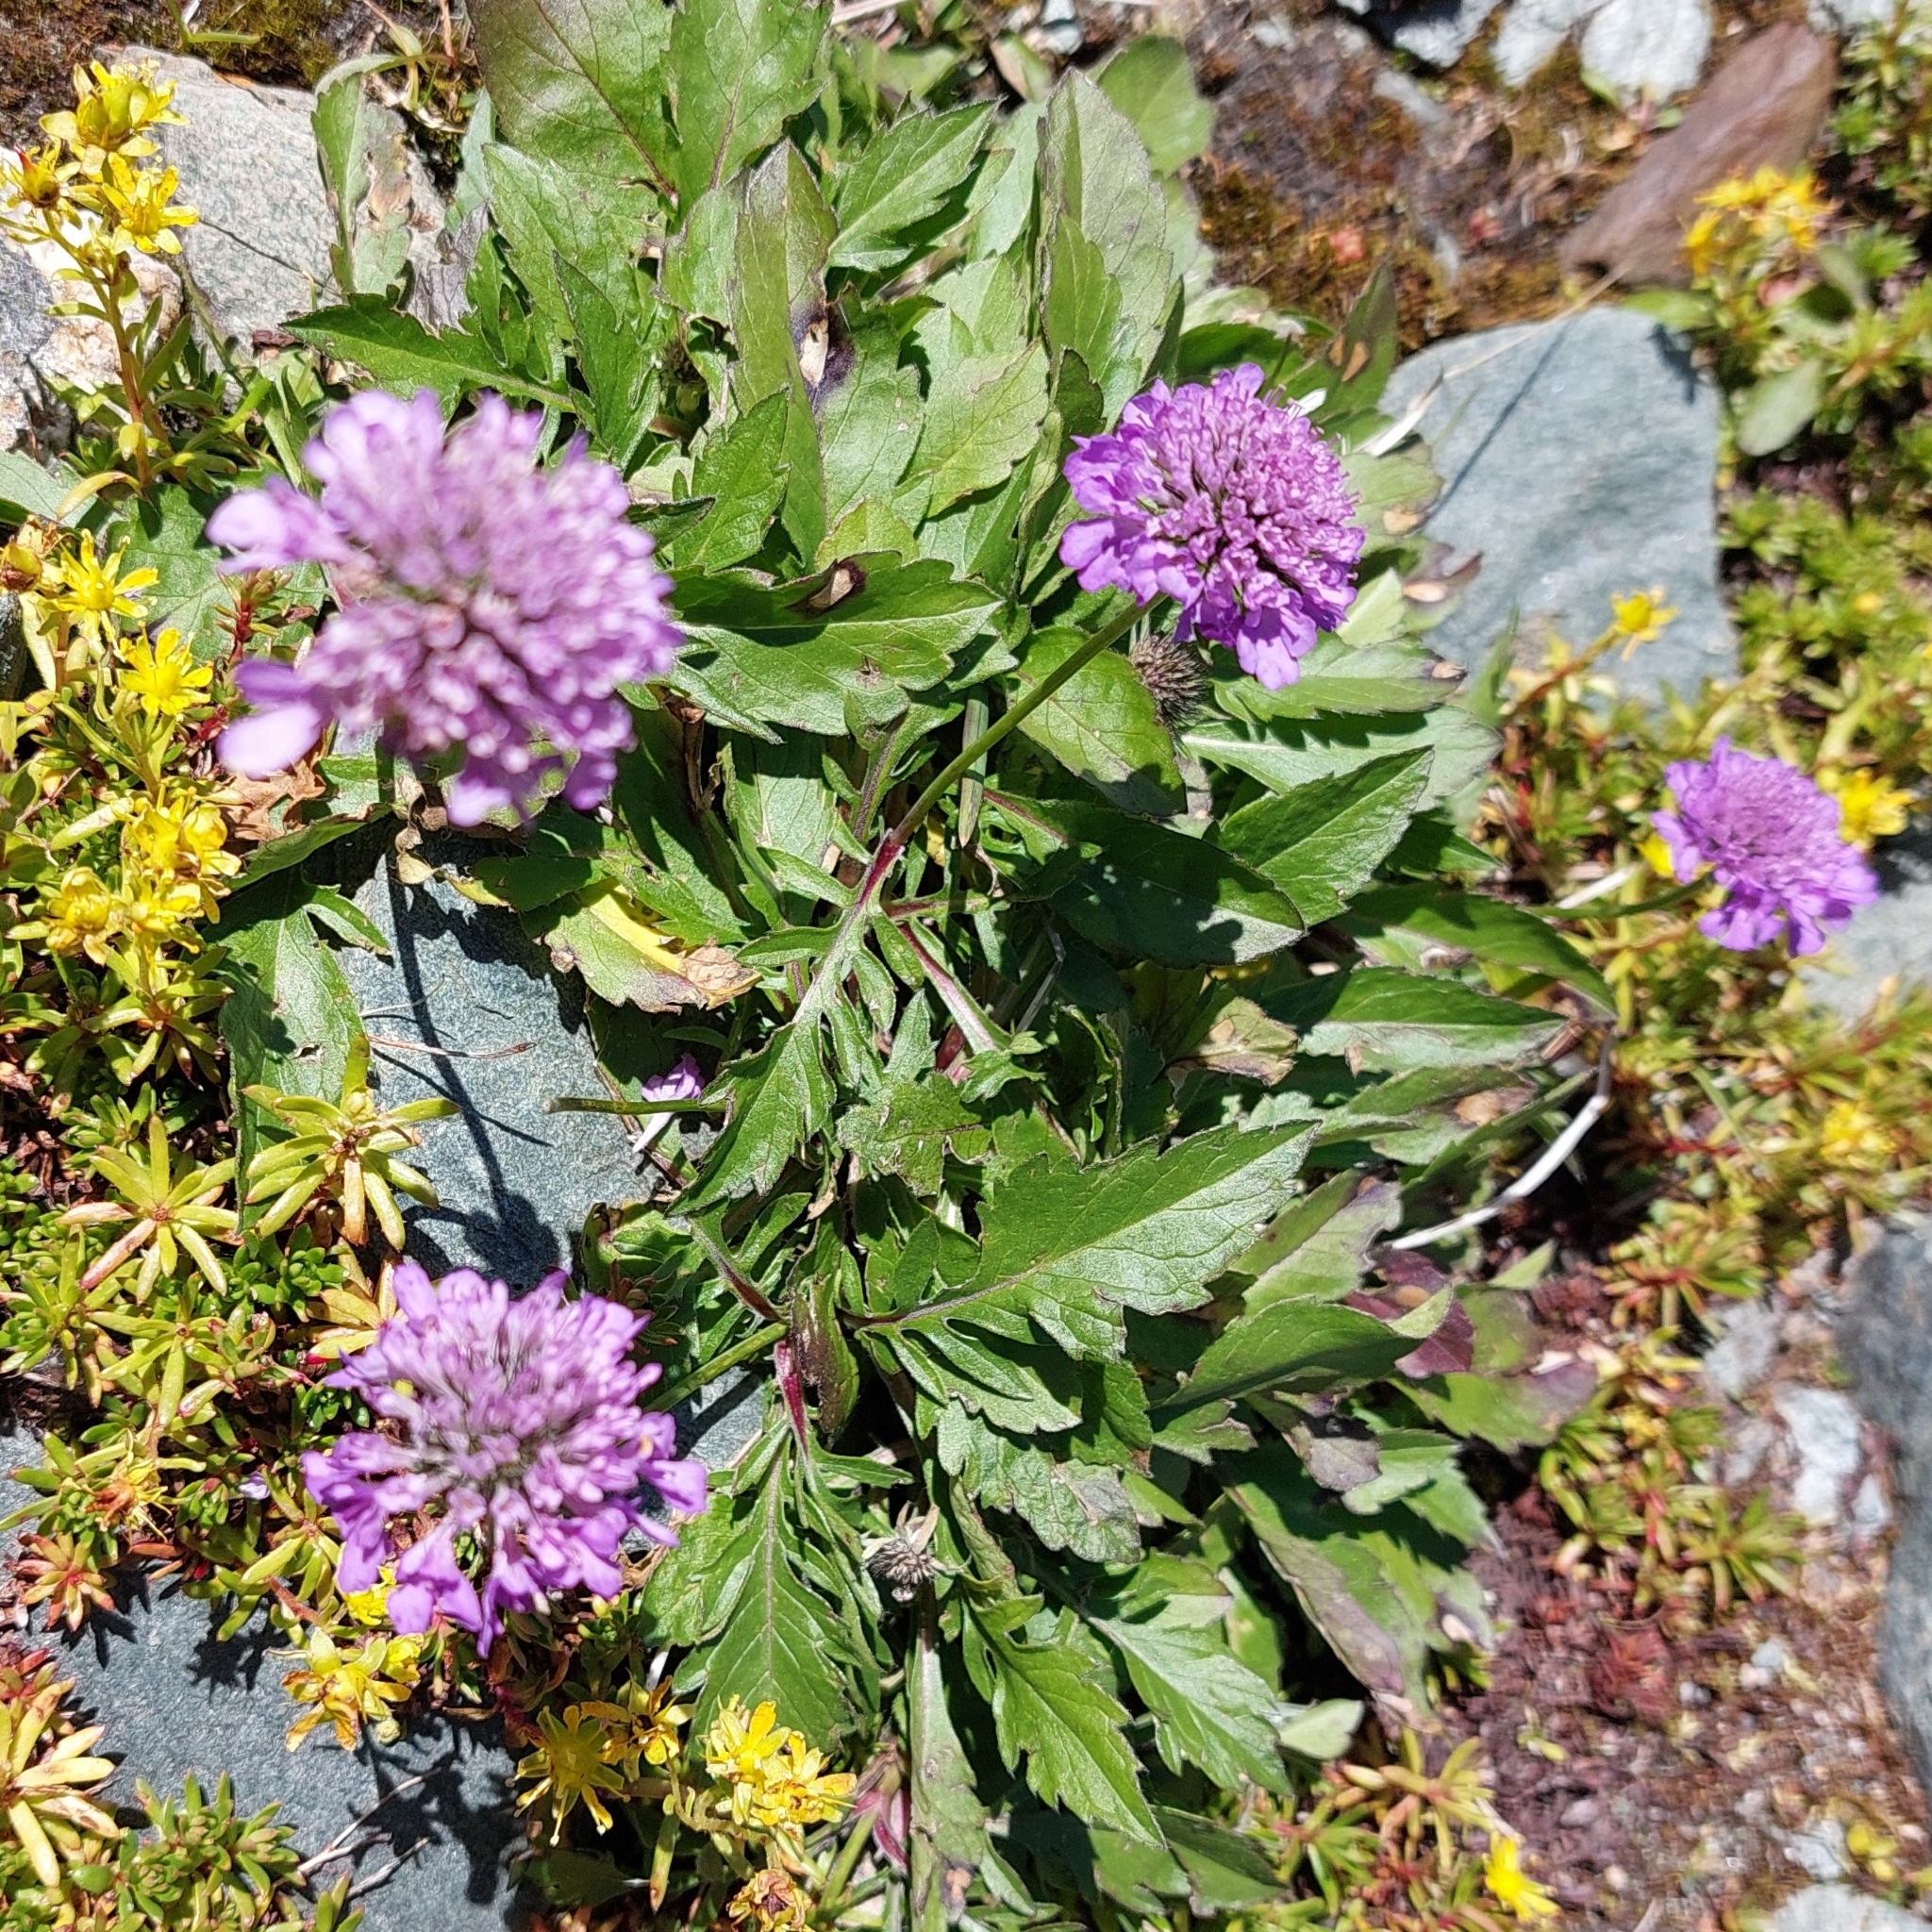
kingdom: Plantae
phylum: Tracheophyta
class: Magnoliopsida
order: Dipsacales
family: Caprifoliaceae
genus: Scabiosa
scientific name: Scabiosa lucida
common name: Shining scabious
